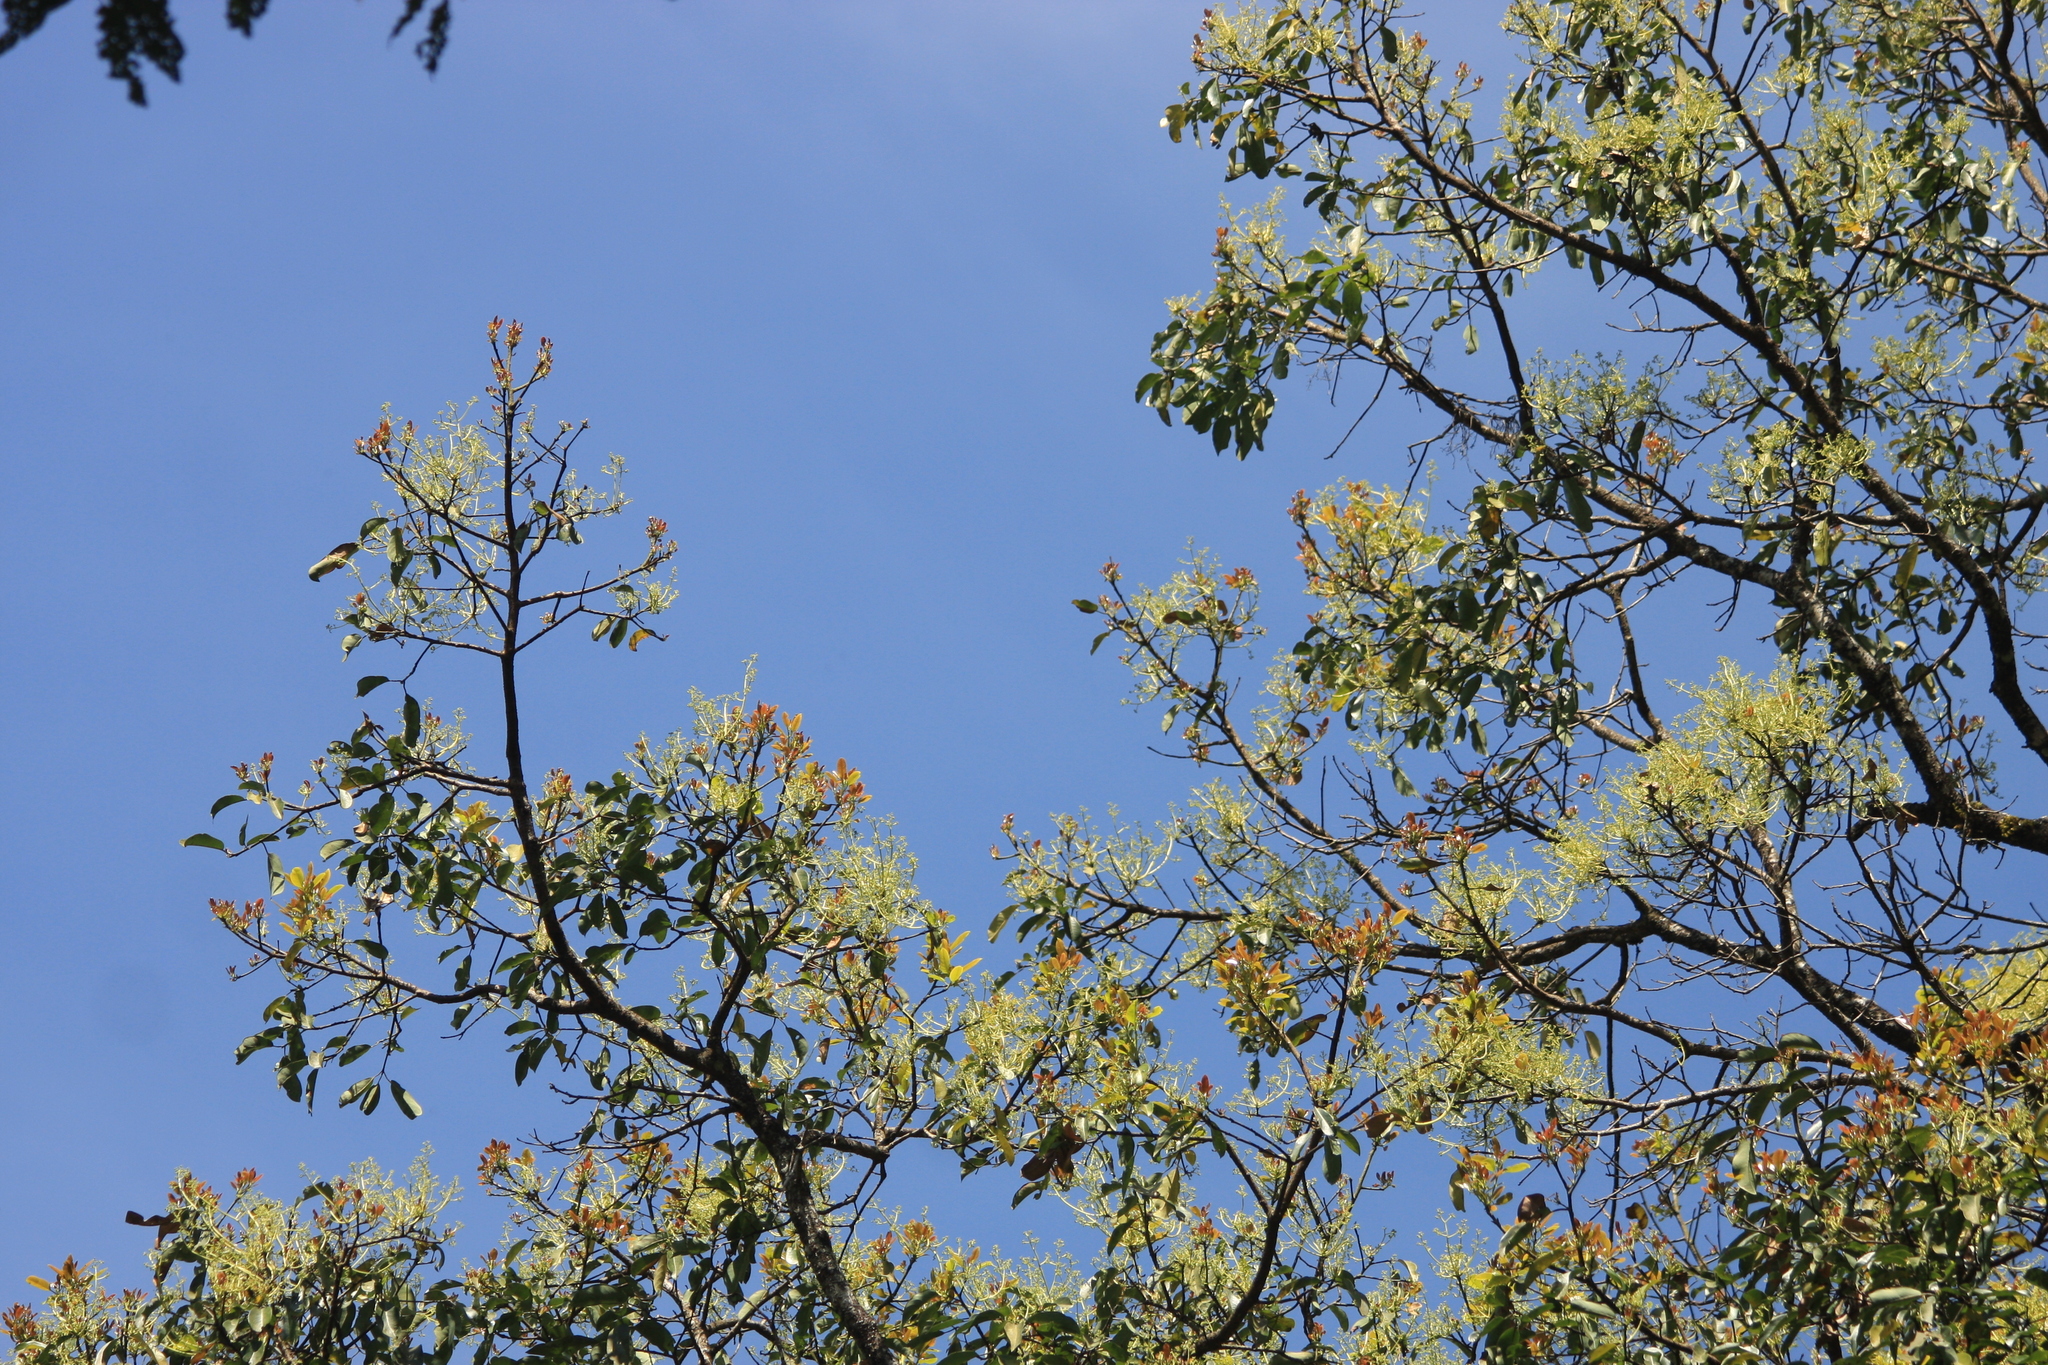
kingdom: Plantae
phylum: Tracheophyta
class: Magnoliopsida
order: Laurales
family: Lauraceae
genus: Machilus
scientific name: Machilus glaucescens
